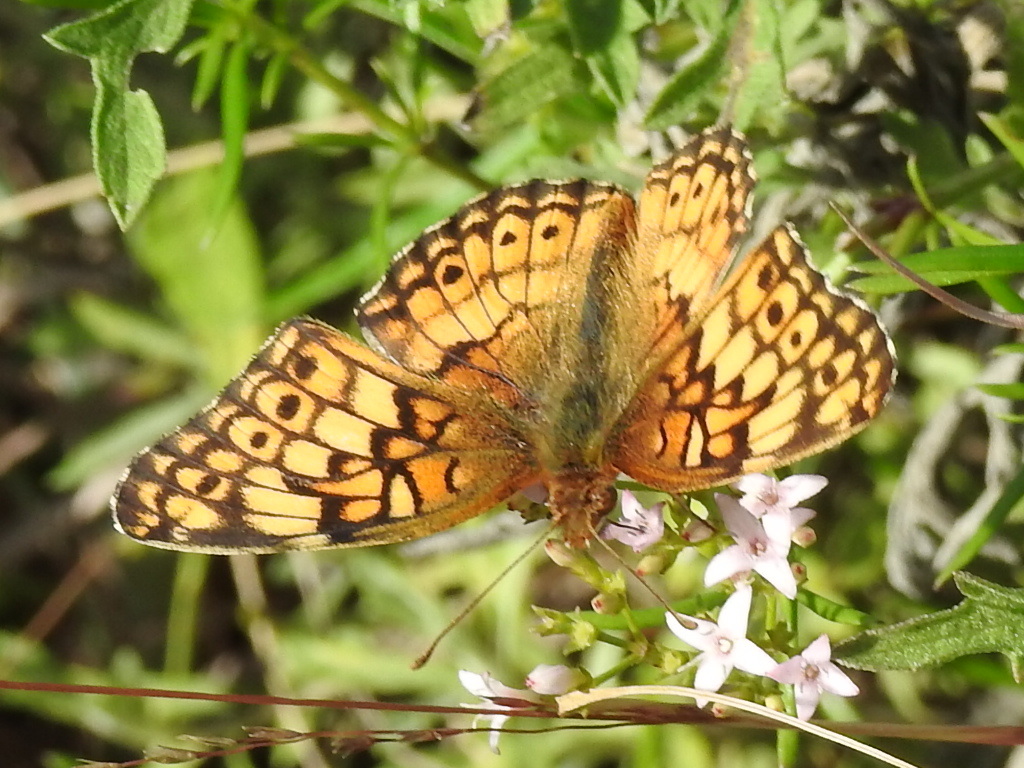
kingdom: Animalia
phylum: Arthropoda
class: Insecta
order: Lepidoptera
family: Nymphalidae
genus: Euptoieta
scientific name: Euptoieta claudia
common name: Variegated fritillary
